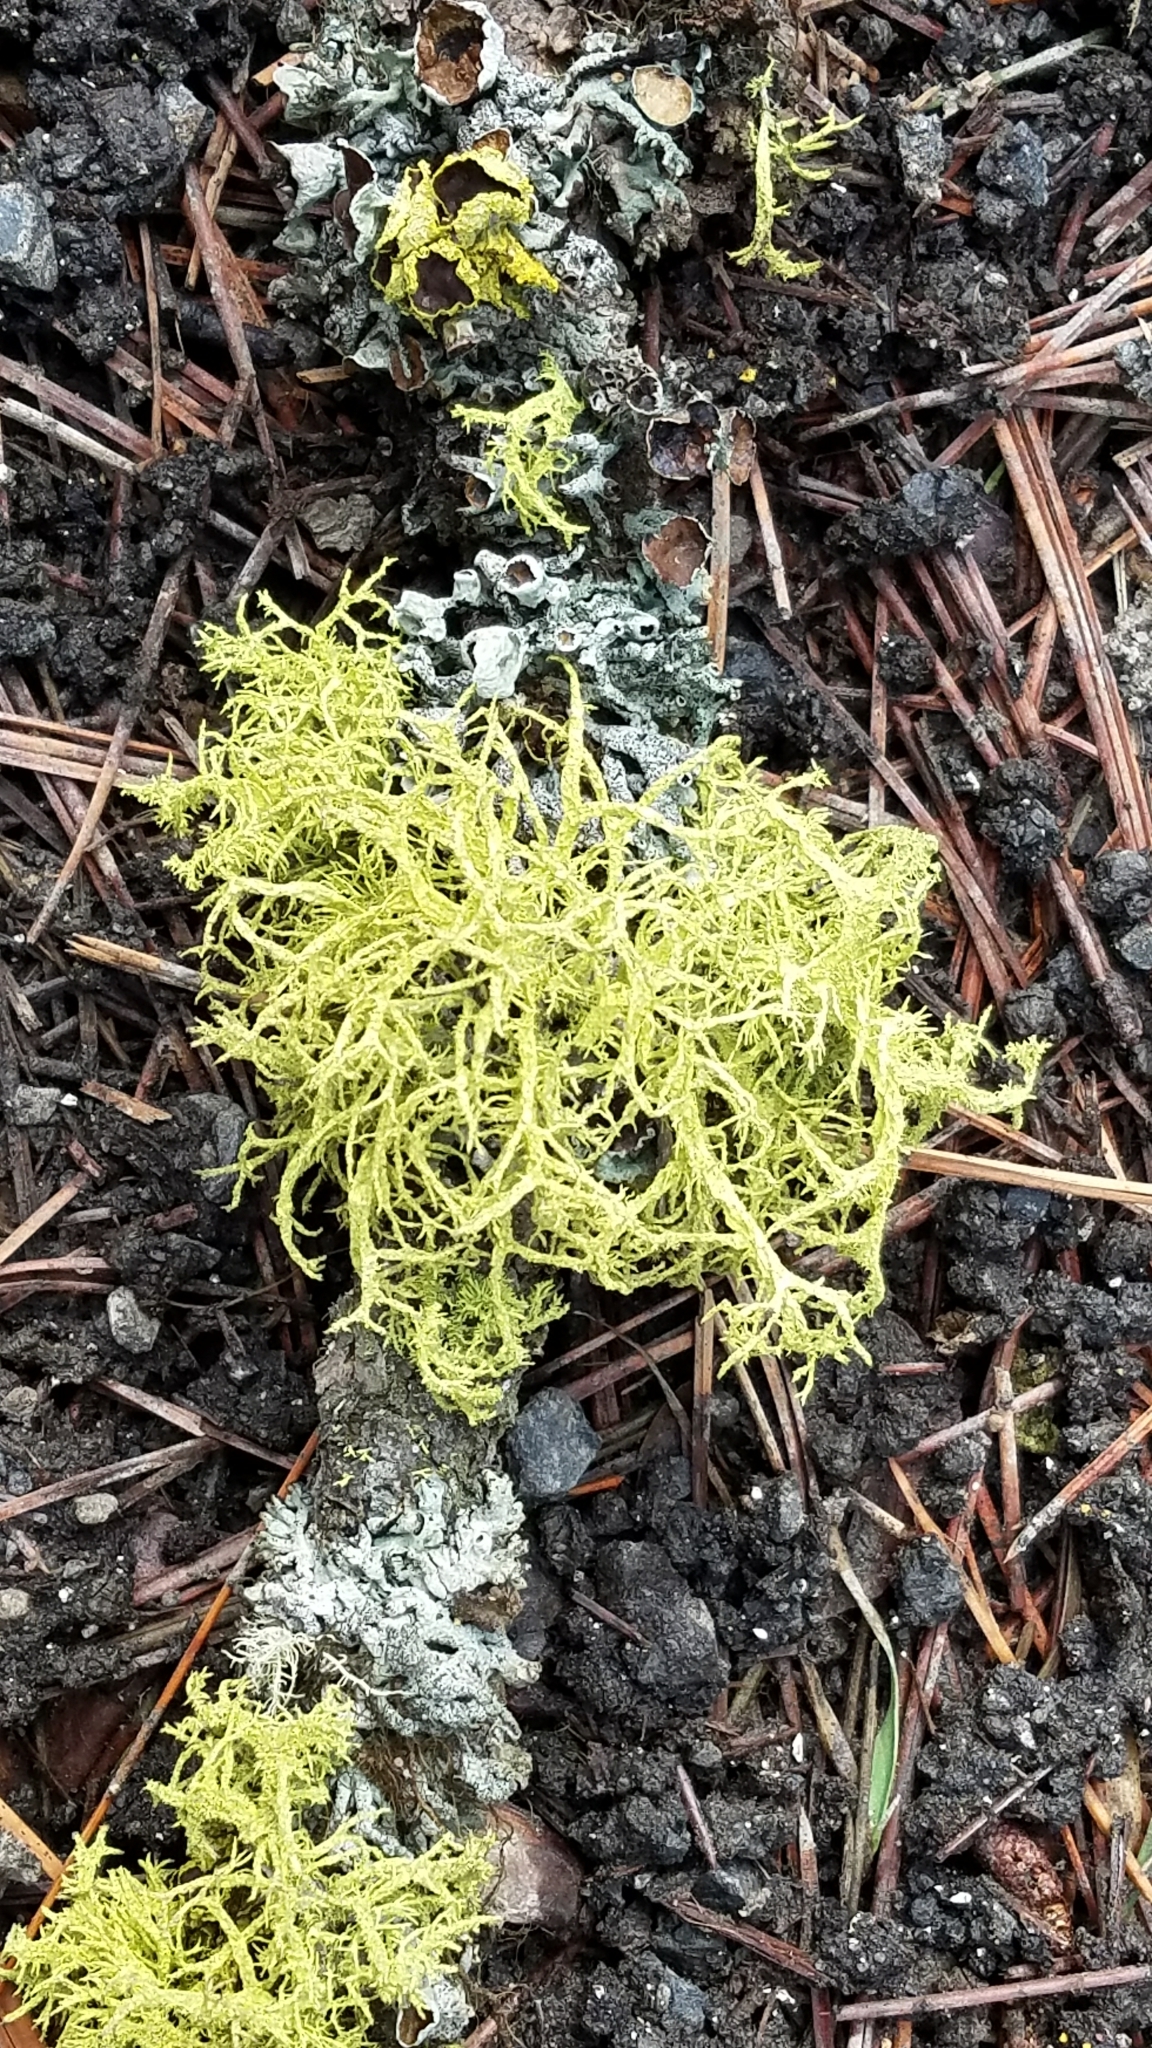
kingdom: Fungi
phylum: Ascomycota
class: Lecanoromycetes
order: Lecanorales
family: Parmeliaceae
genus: Letharia
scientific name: Letharia vulpina
